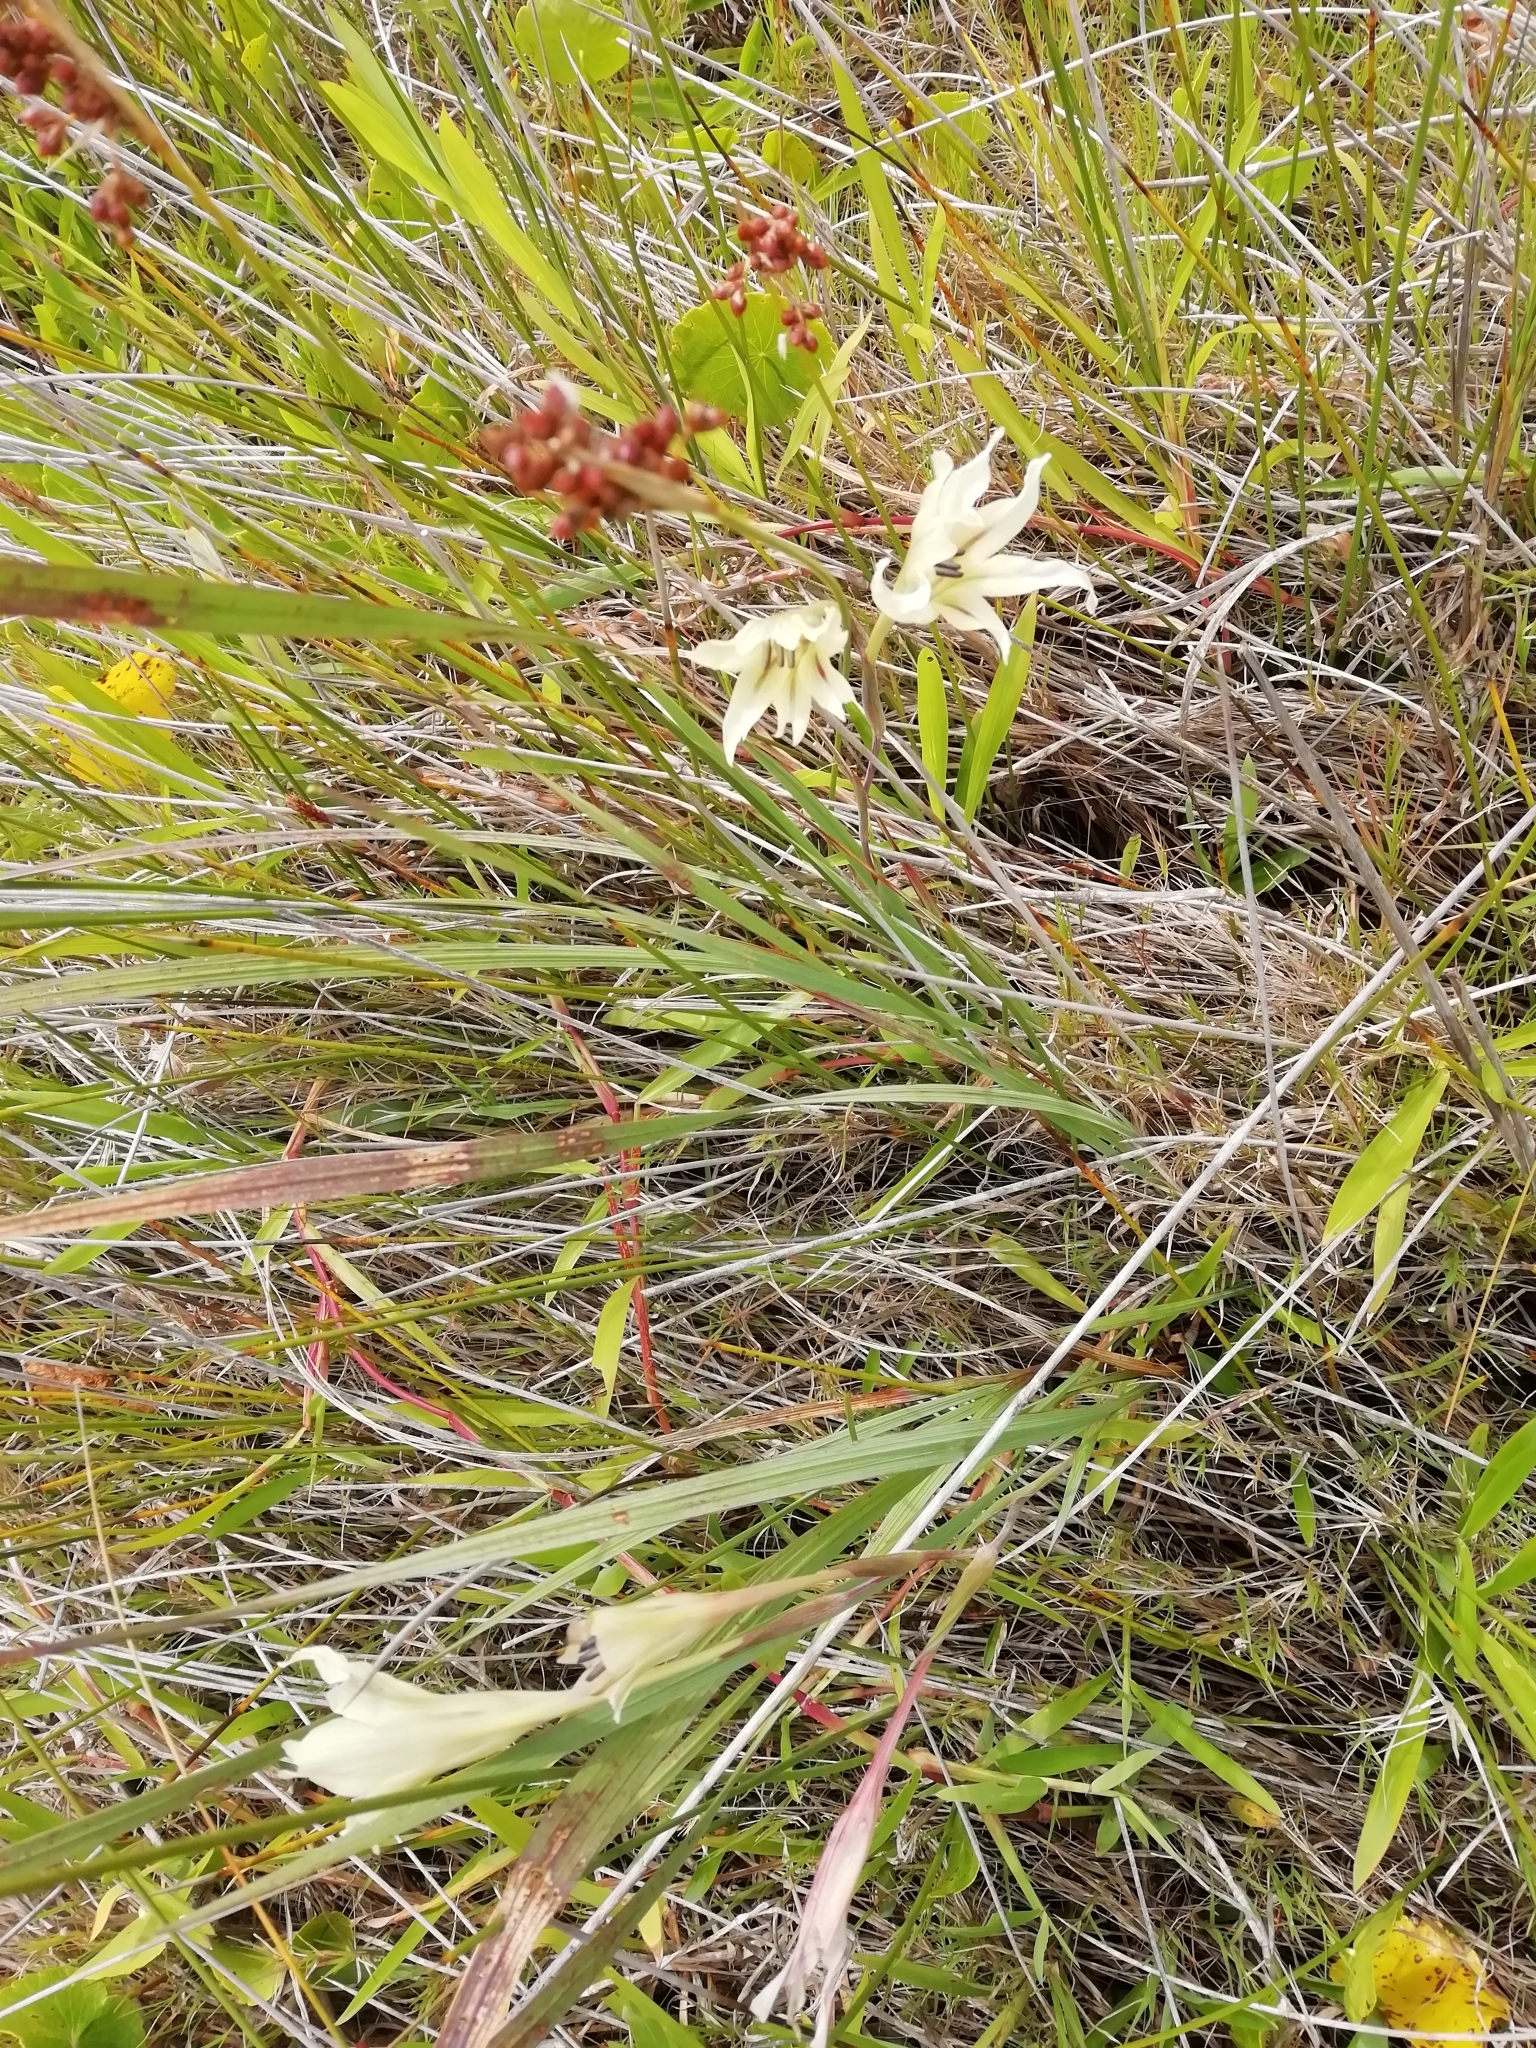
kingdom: Plantae
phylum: Tracheophyta
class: Liliopsida
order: Asparagales
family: Iridaceae
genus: Gladiolus
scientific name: Gladiolus tristis
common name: Ever-flowering gladiolus
